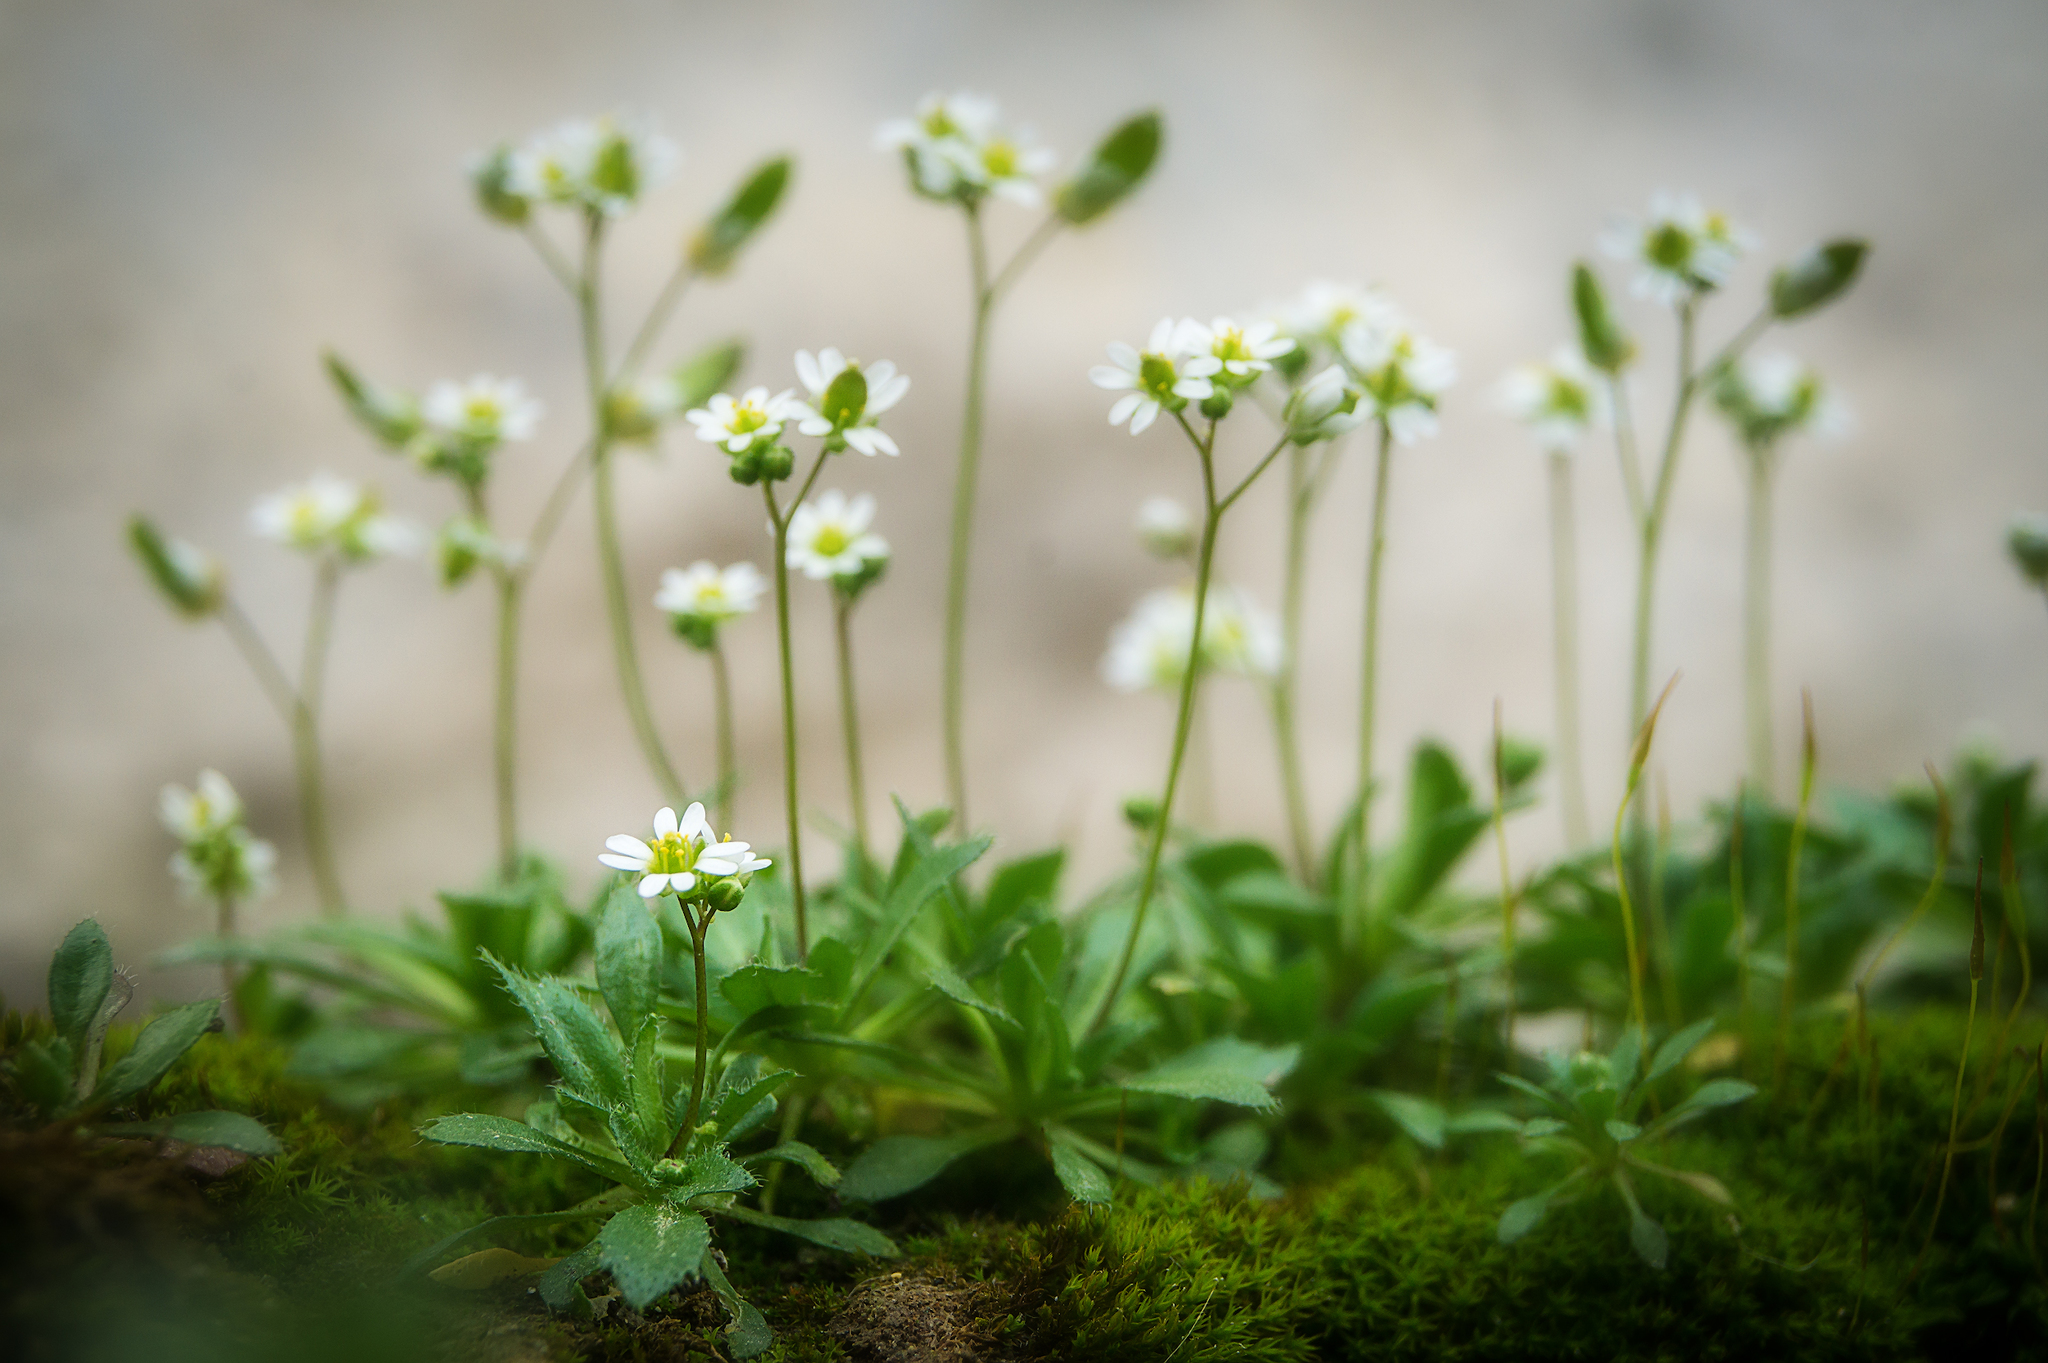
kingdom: Plantae
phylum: Tracheophyta
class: Magnoliopsida
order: Brassicales
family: Brassicaceae
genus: Draba
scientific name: Draba verna
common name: Spring draba
